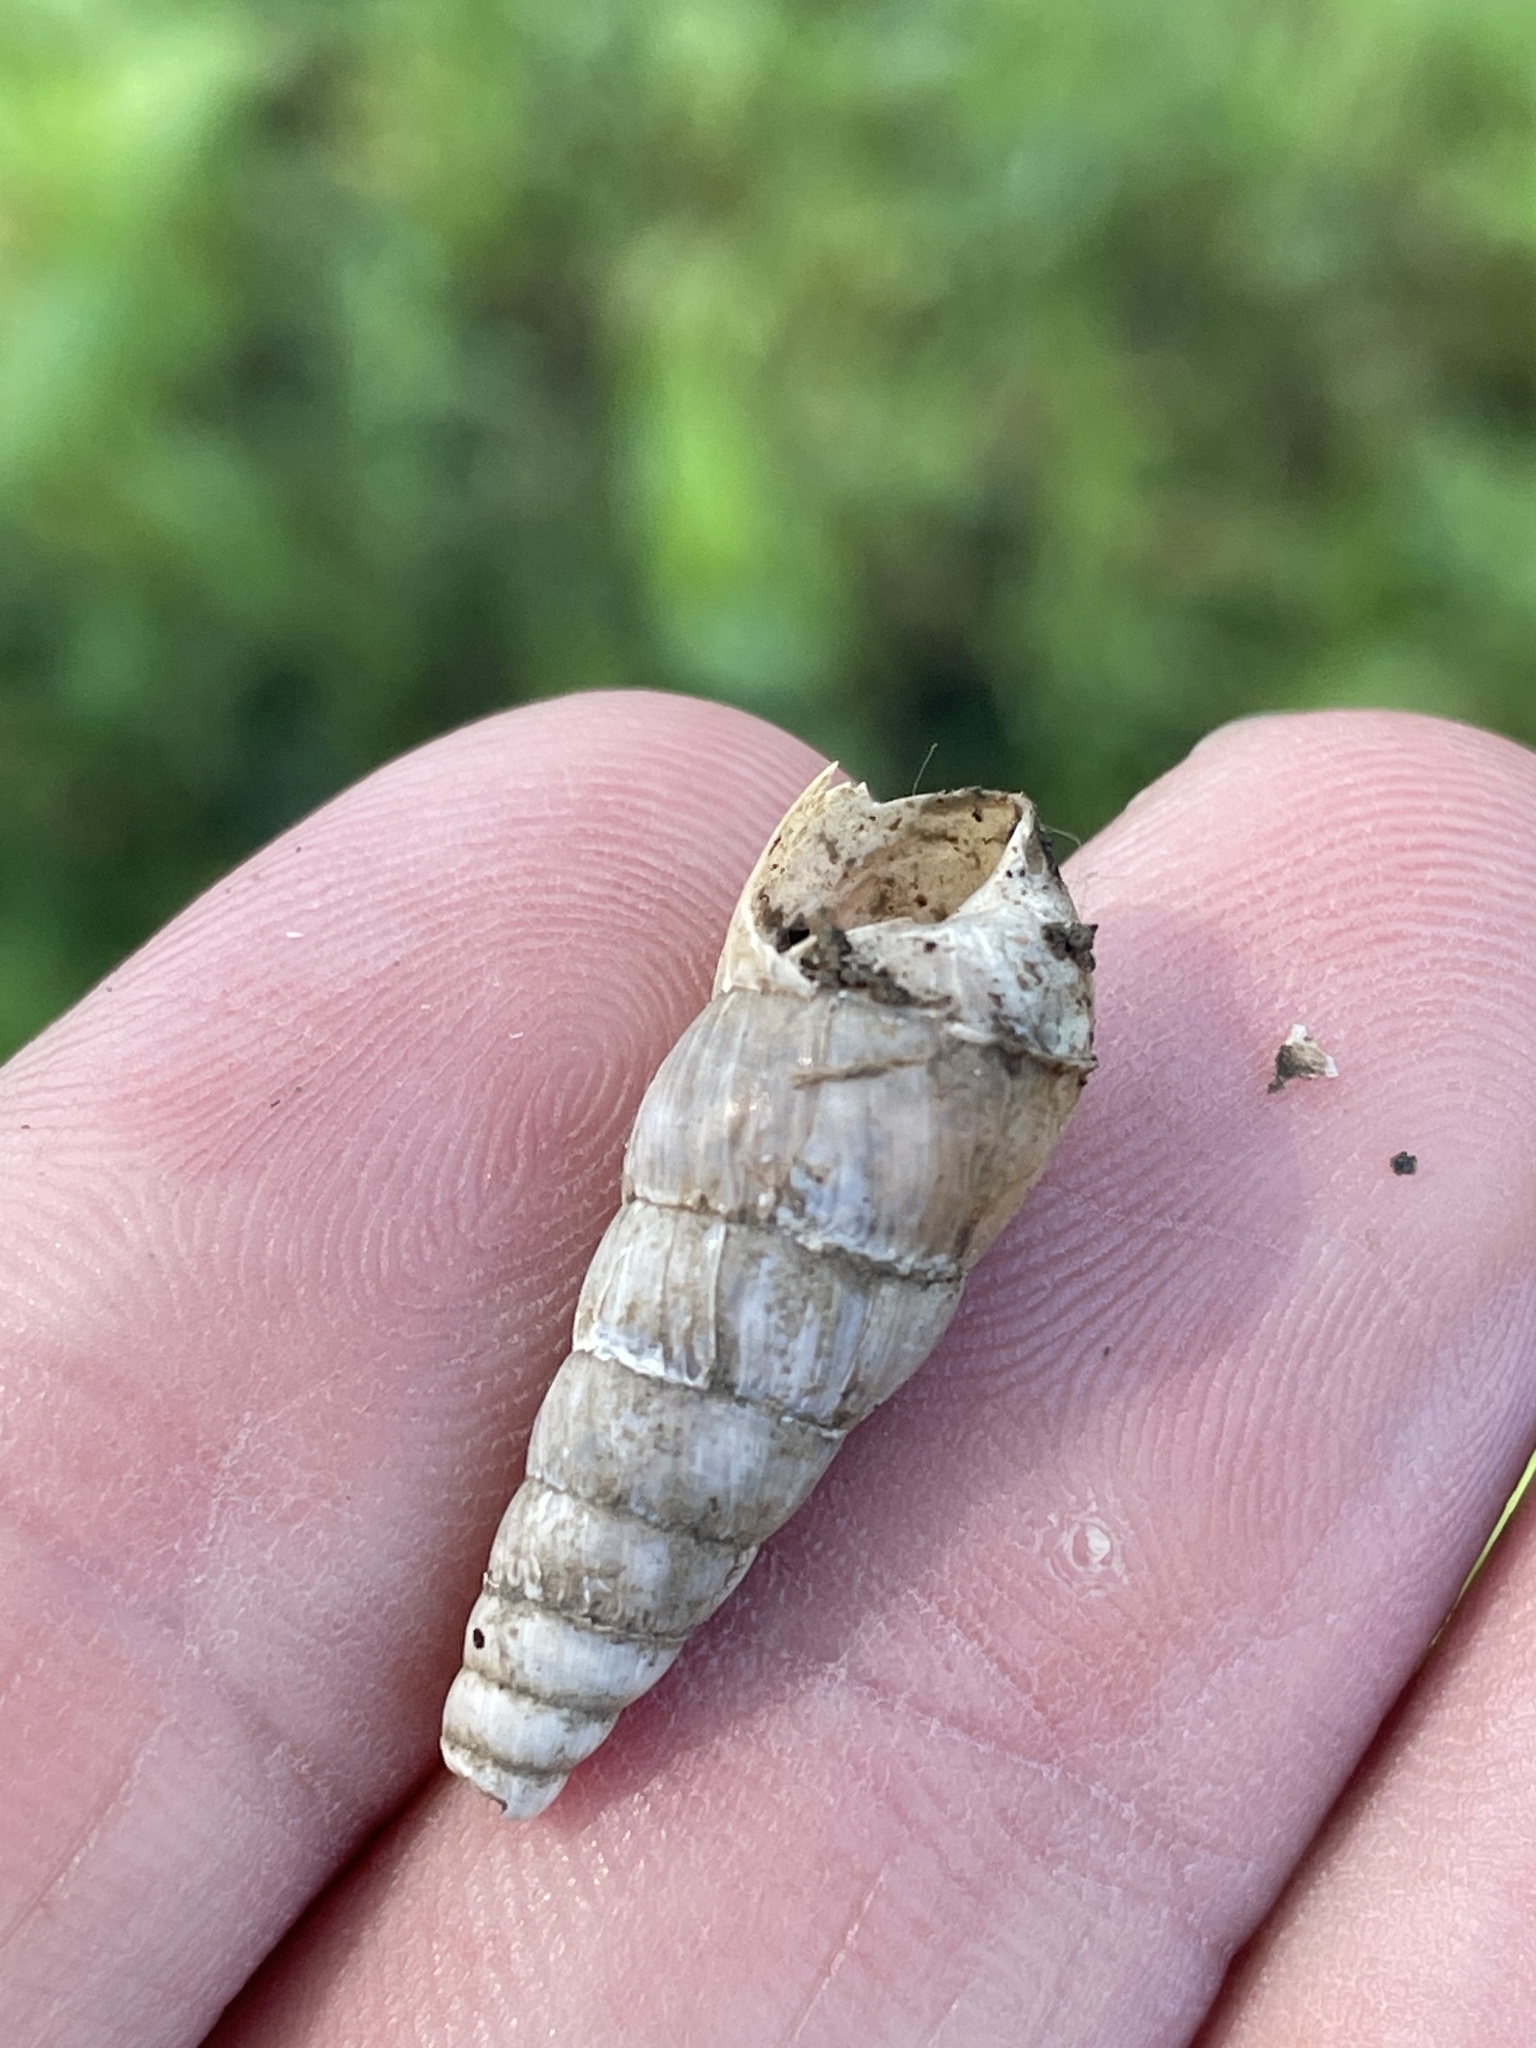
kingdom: Animalia
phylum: Mollusca
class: Gastropoda
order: Stylommatophora
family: Achatinidae
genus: Rumina
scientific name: Rumina decollata
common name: Decollate snail
